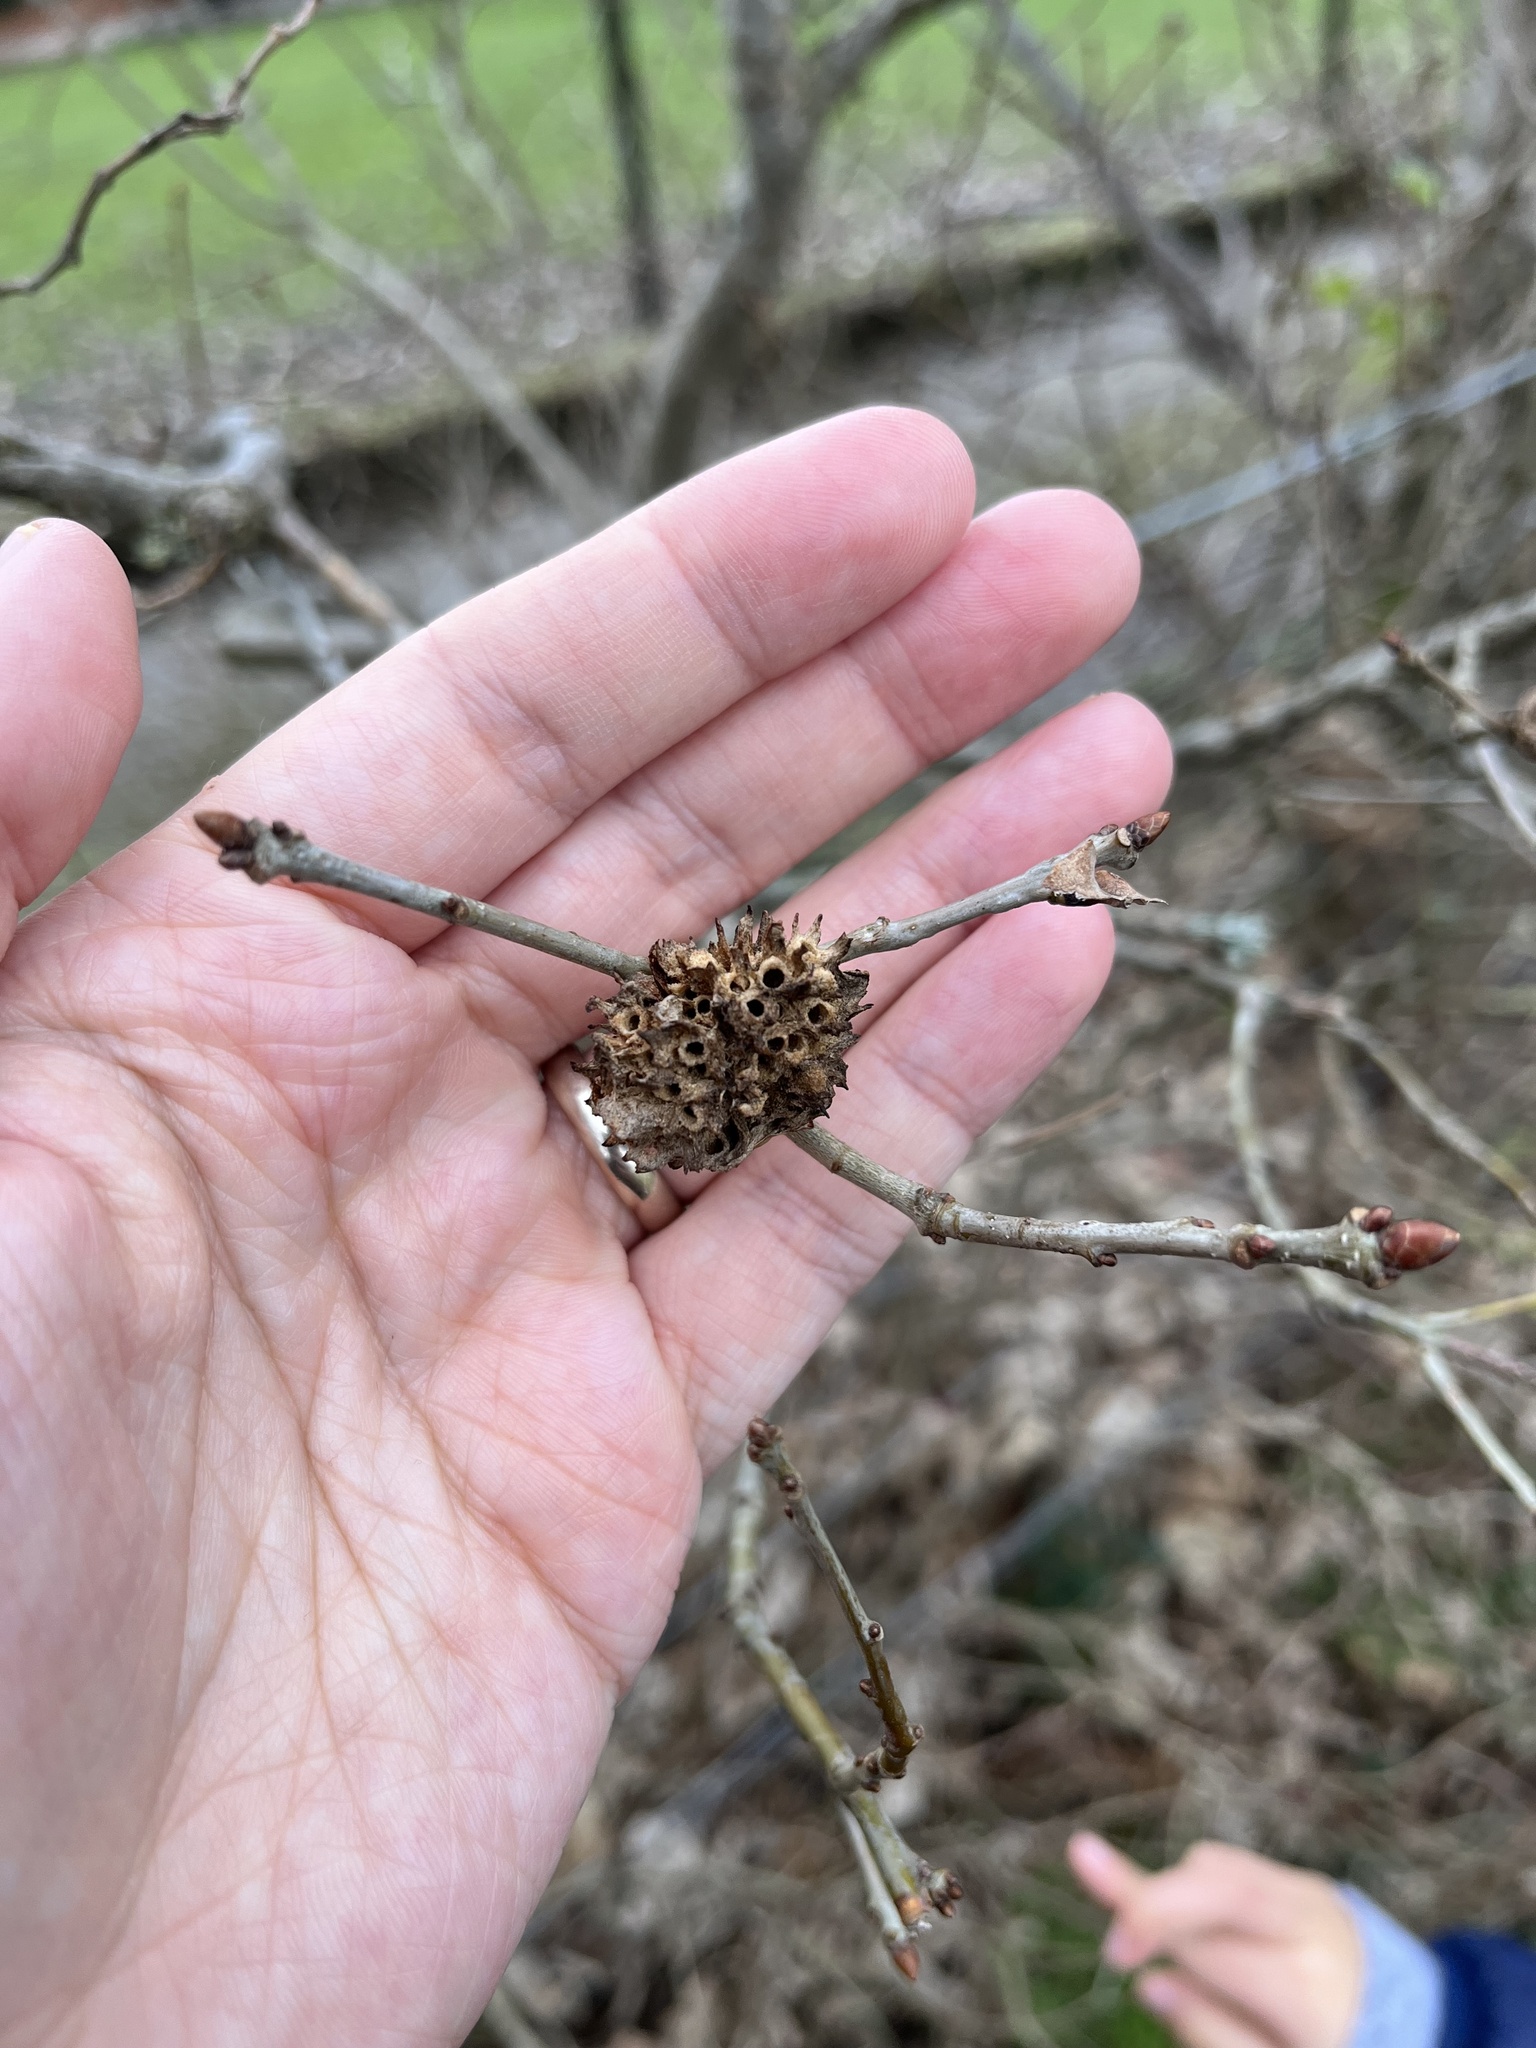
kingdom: Animalia
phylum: Arthropoda
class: Insecta
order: Hymenoptera
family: Cynipidae
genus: Biorhiza
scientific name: Biorhiza pallida
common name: Oak apple
